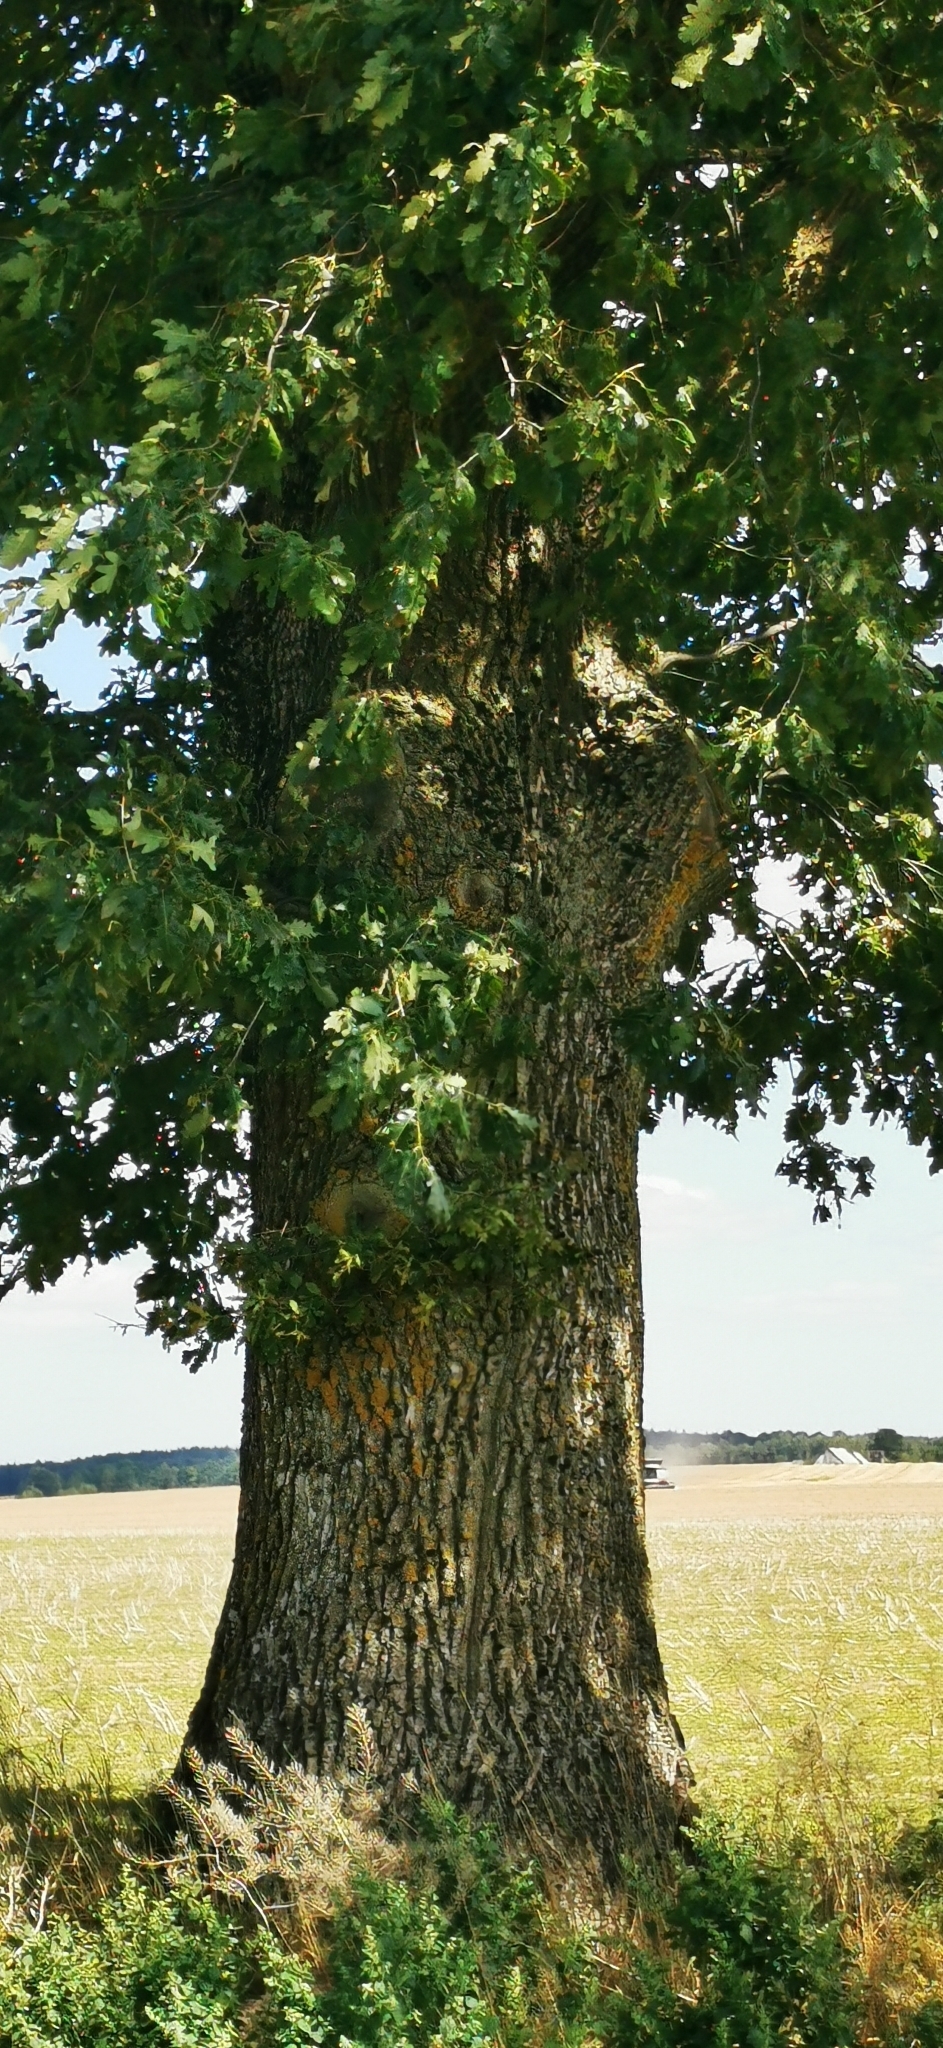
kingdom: Plantae
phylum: Tracheophyta
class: Magnoliopsida
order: Fagales
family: Fagaceae
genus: Quercus
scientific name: Quercus robur
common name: Pedunculate oak
